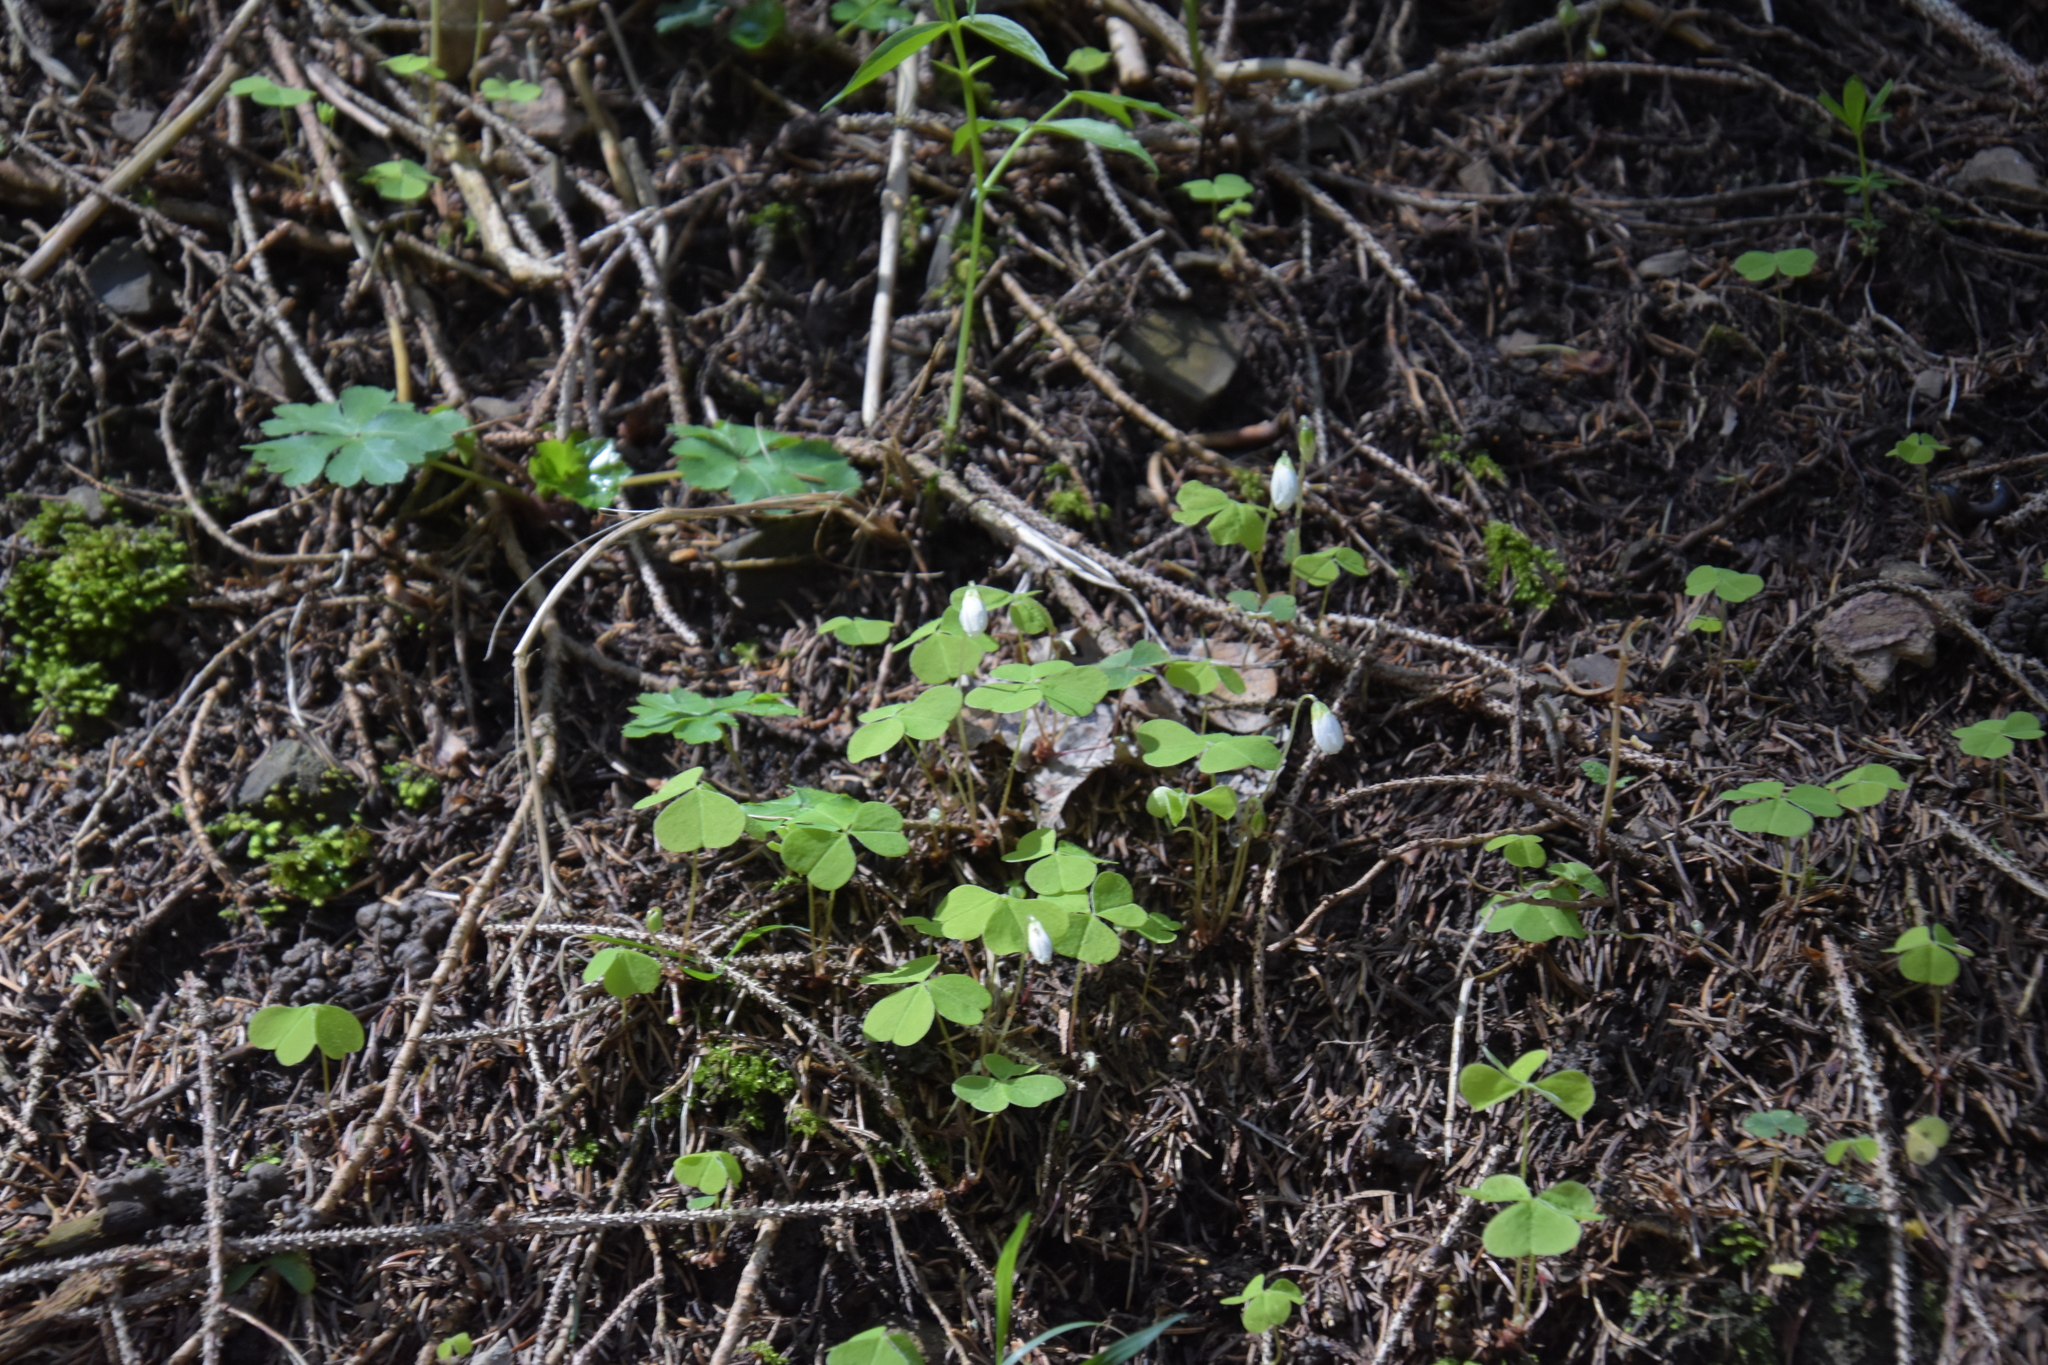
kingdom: Plantae
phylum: Tracheophyta
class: Magnoliopsida
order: Oxalidales
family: Oxalidaceae
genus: Oxalis
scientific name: Oxalis acetosella
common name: Wood-sorrel
